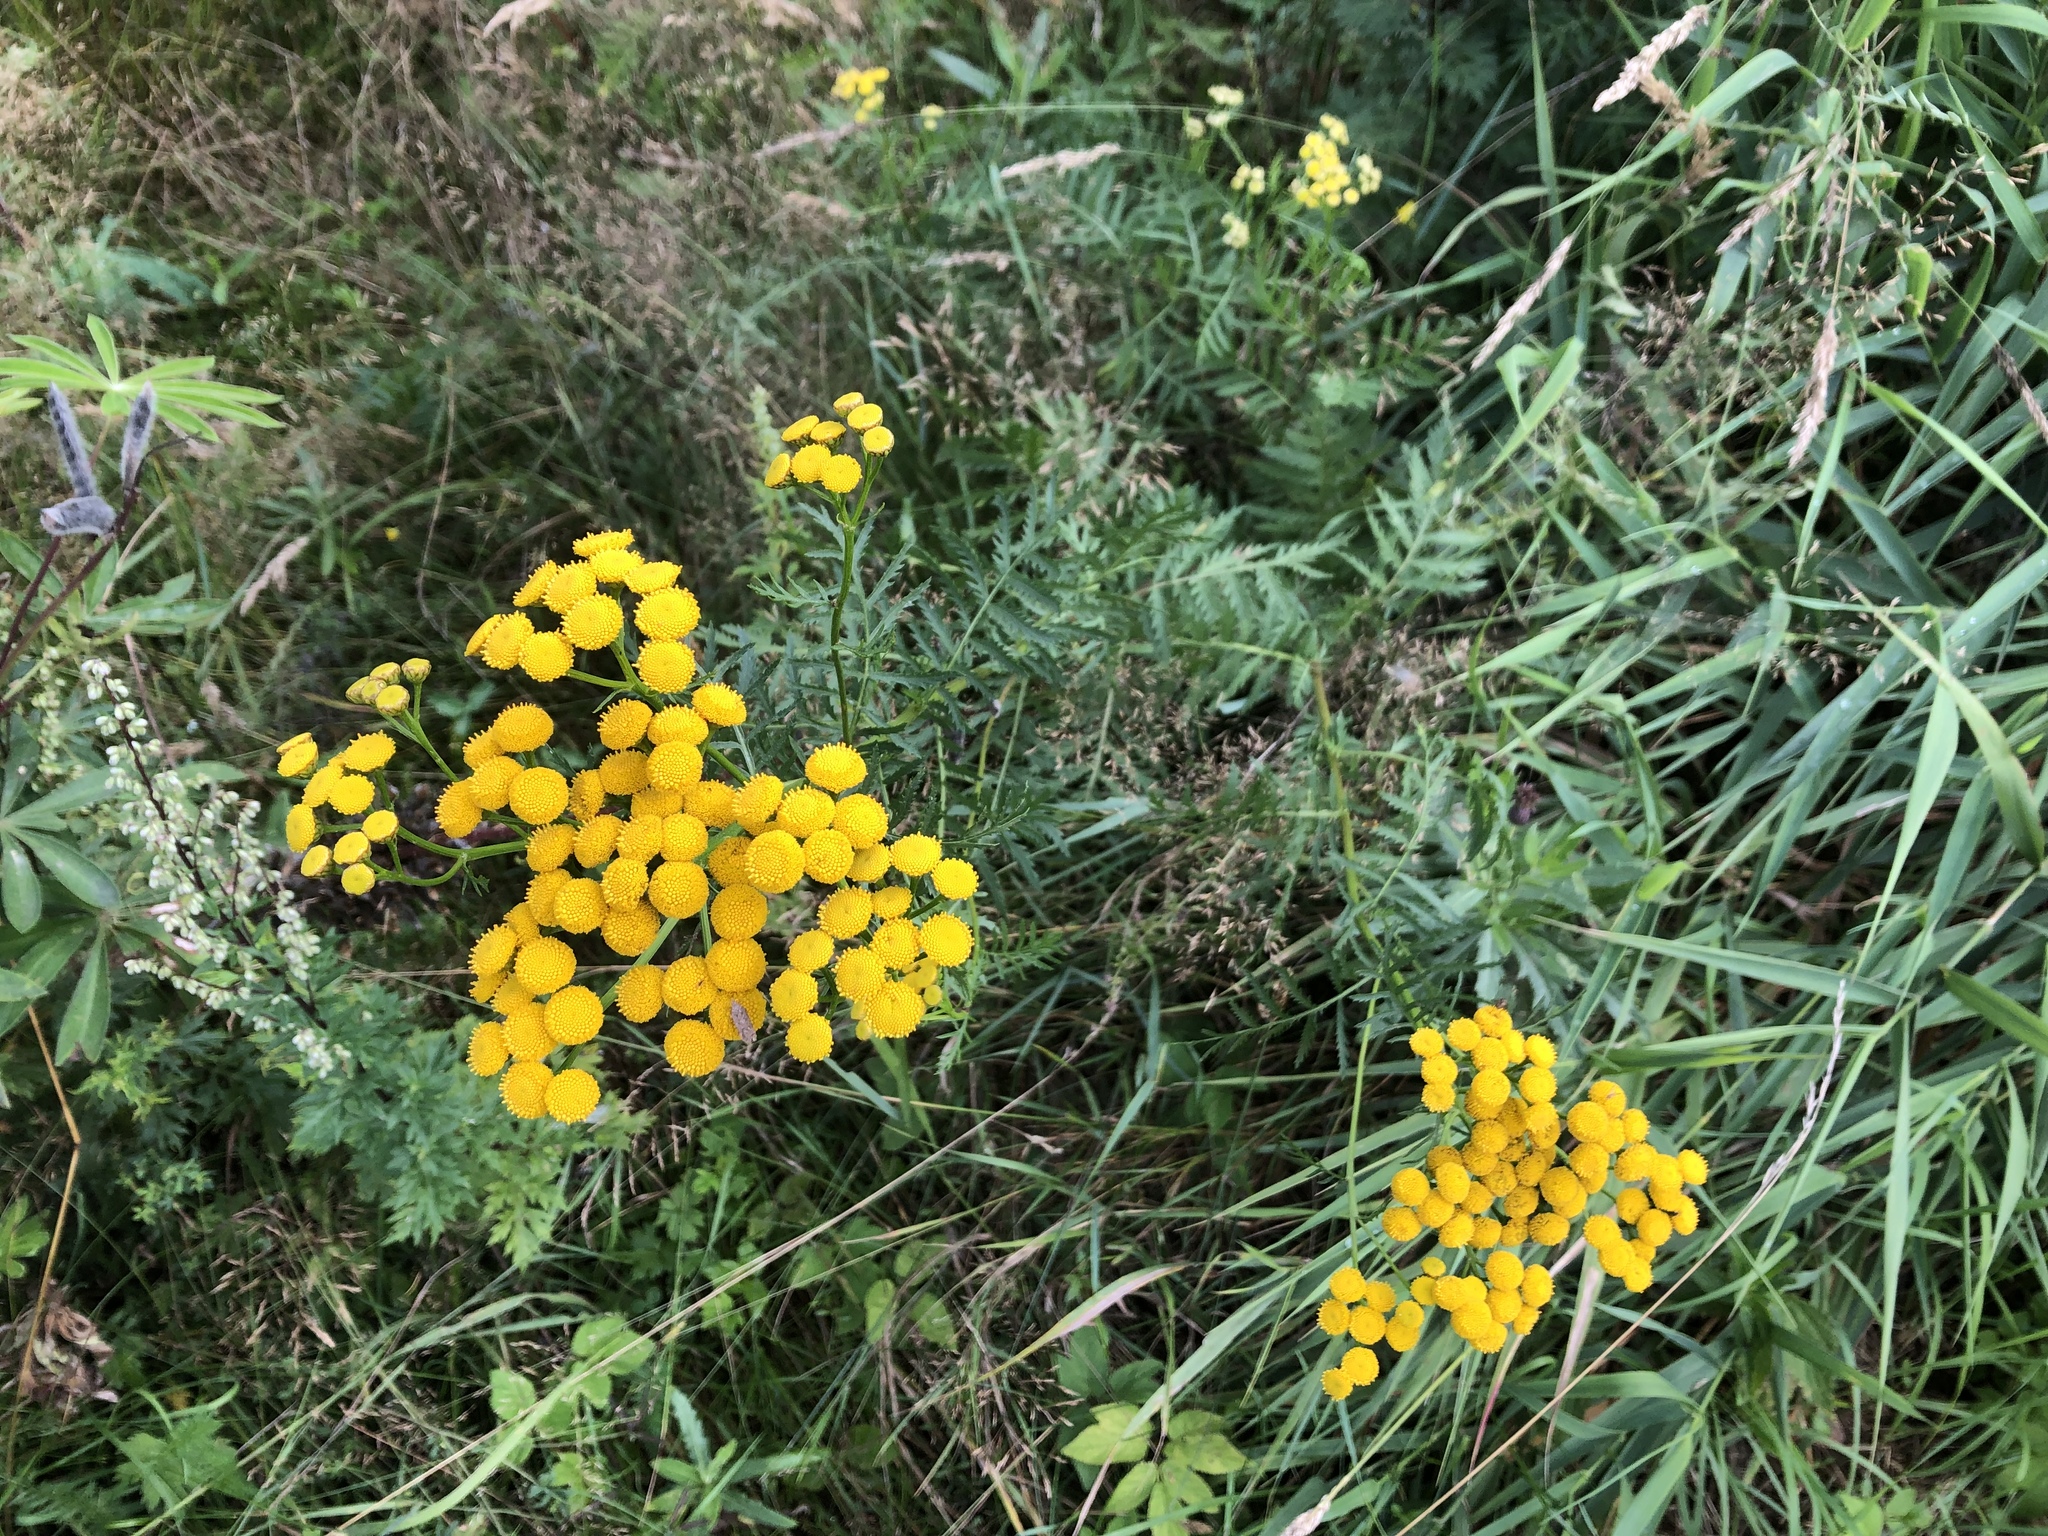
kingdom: Plantae
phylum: Tracheophyta
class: Magnoliopsida
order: Asterales
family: Asteraceae
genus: Tanacetum
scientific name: Tanacetum vulgare
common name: Common tansy
